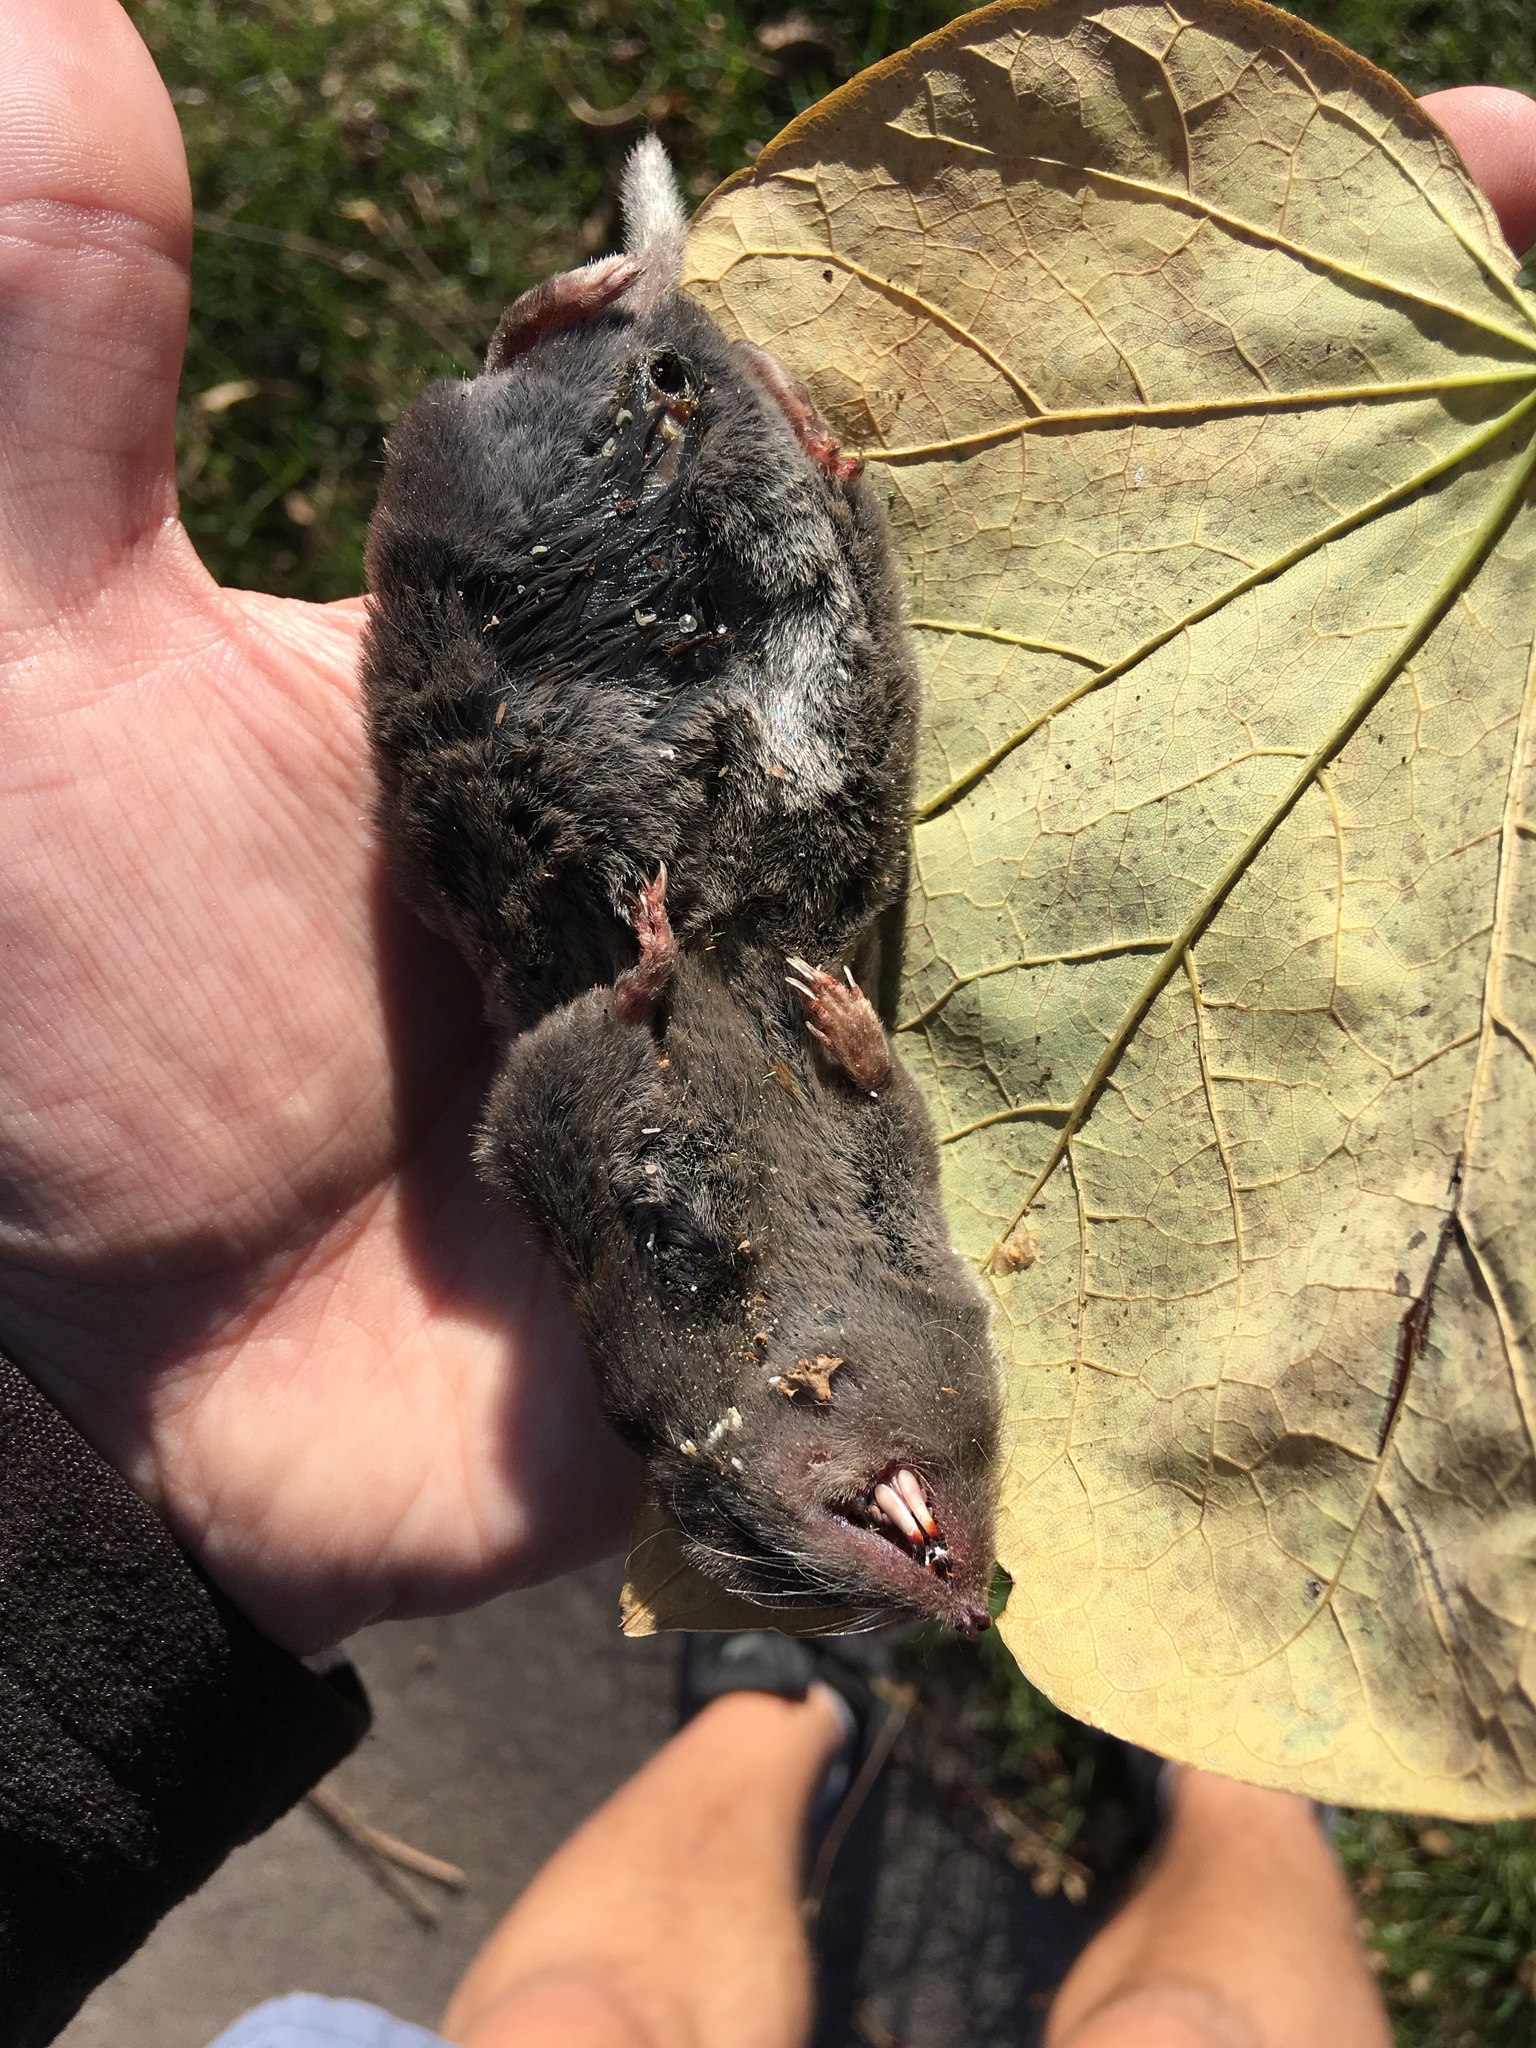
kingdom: Animalia
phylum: Chordata
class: Mammalia
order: Soricomorpha
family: Soricidae
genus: Blarina
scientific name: Blarina brevicauda
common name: Northern short-tailed shrew
